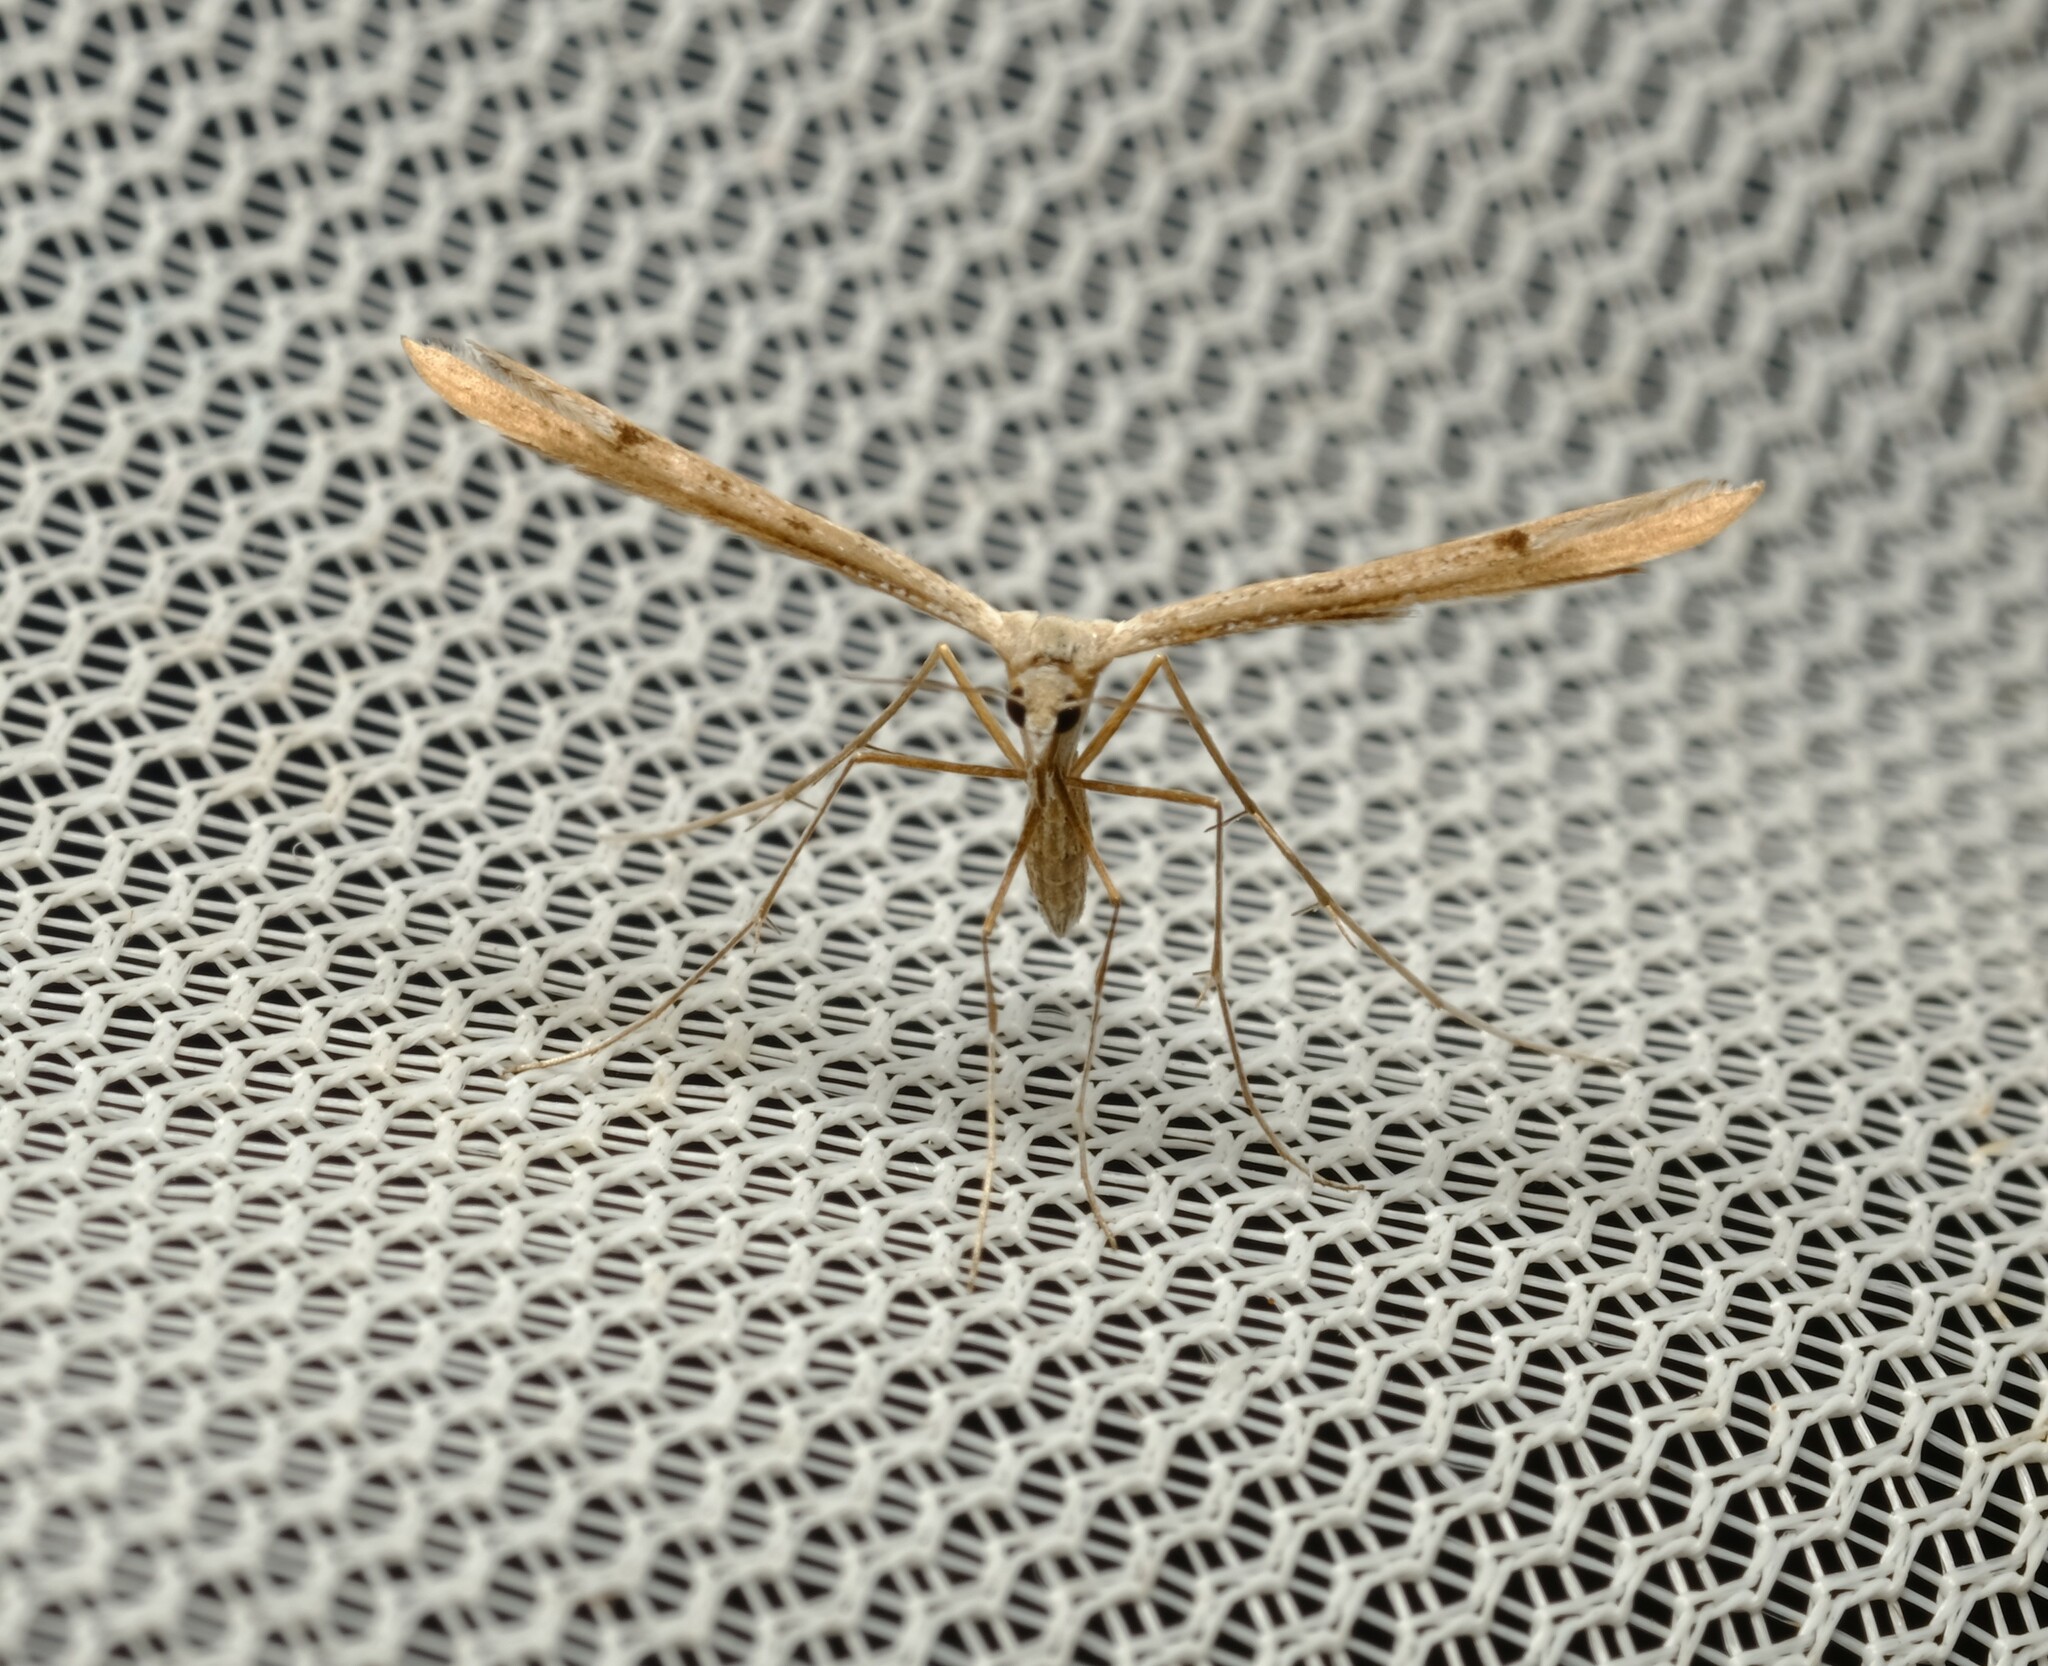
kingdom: Animalia
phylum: Arthropoda
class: Insecta
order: Lepidoptera
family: Pterophoridae
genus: Stenoptilia
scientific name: Stenoptilia zophodactylus
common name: Dowdy plume
